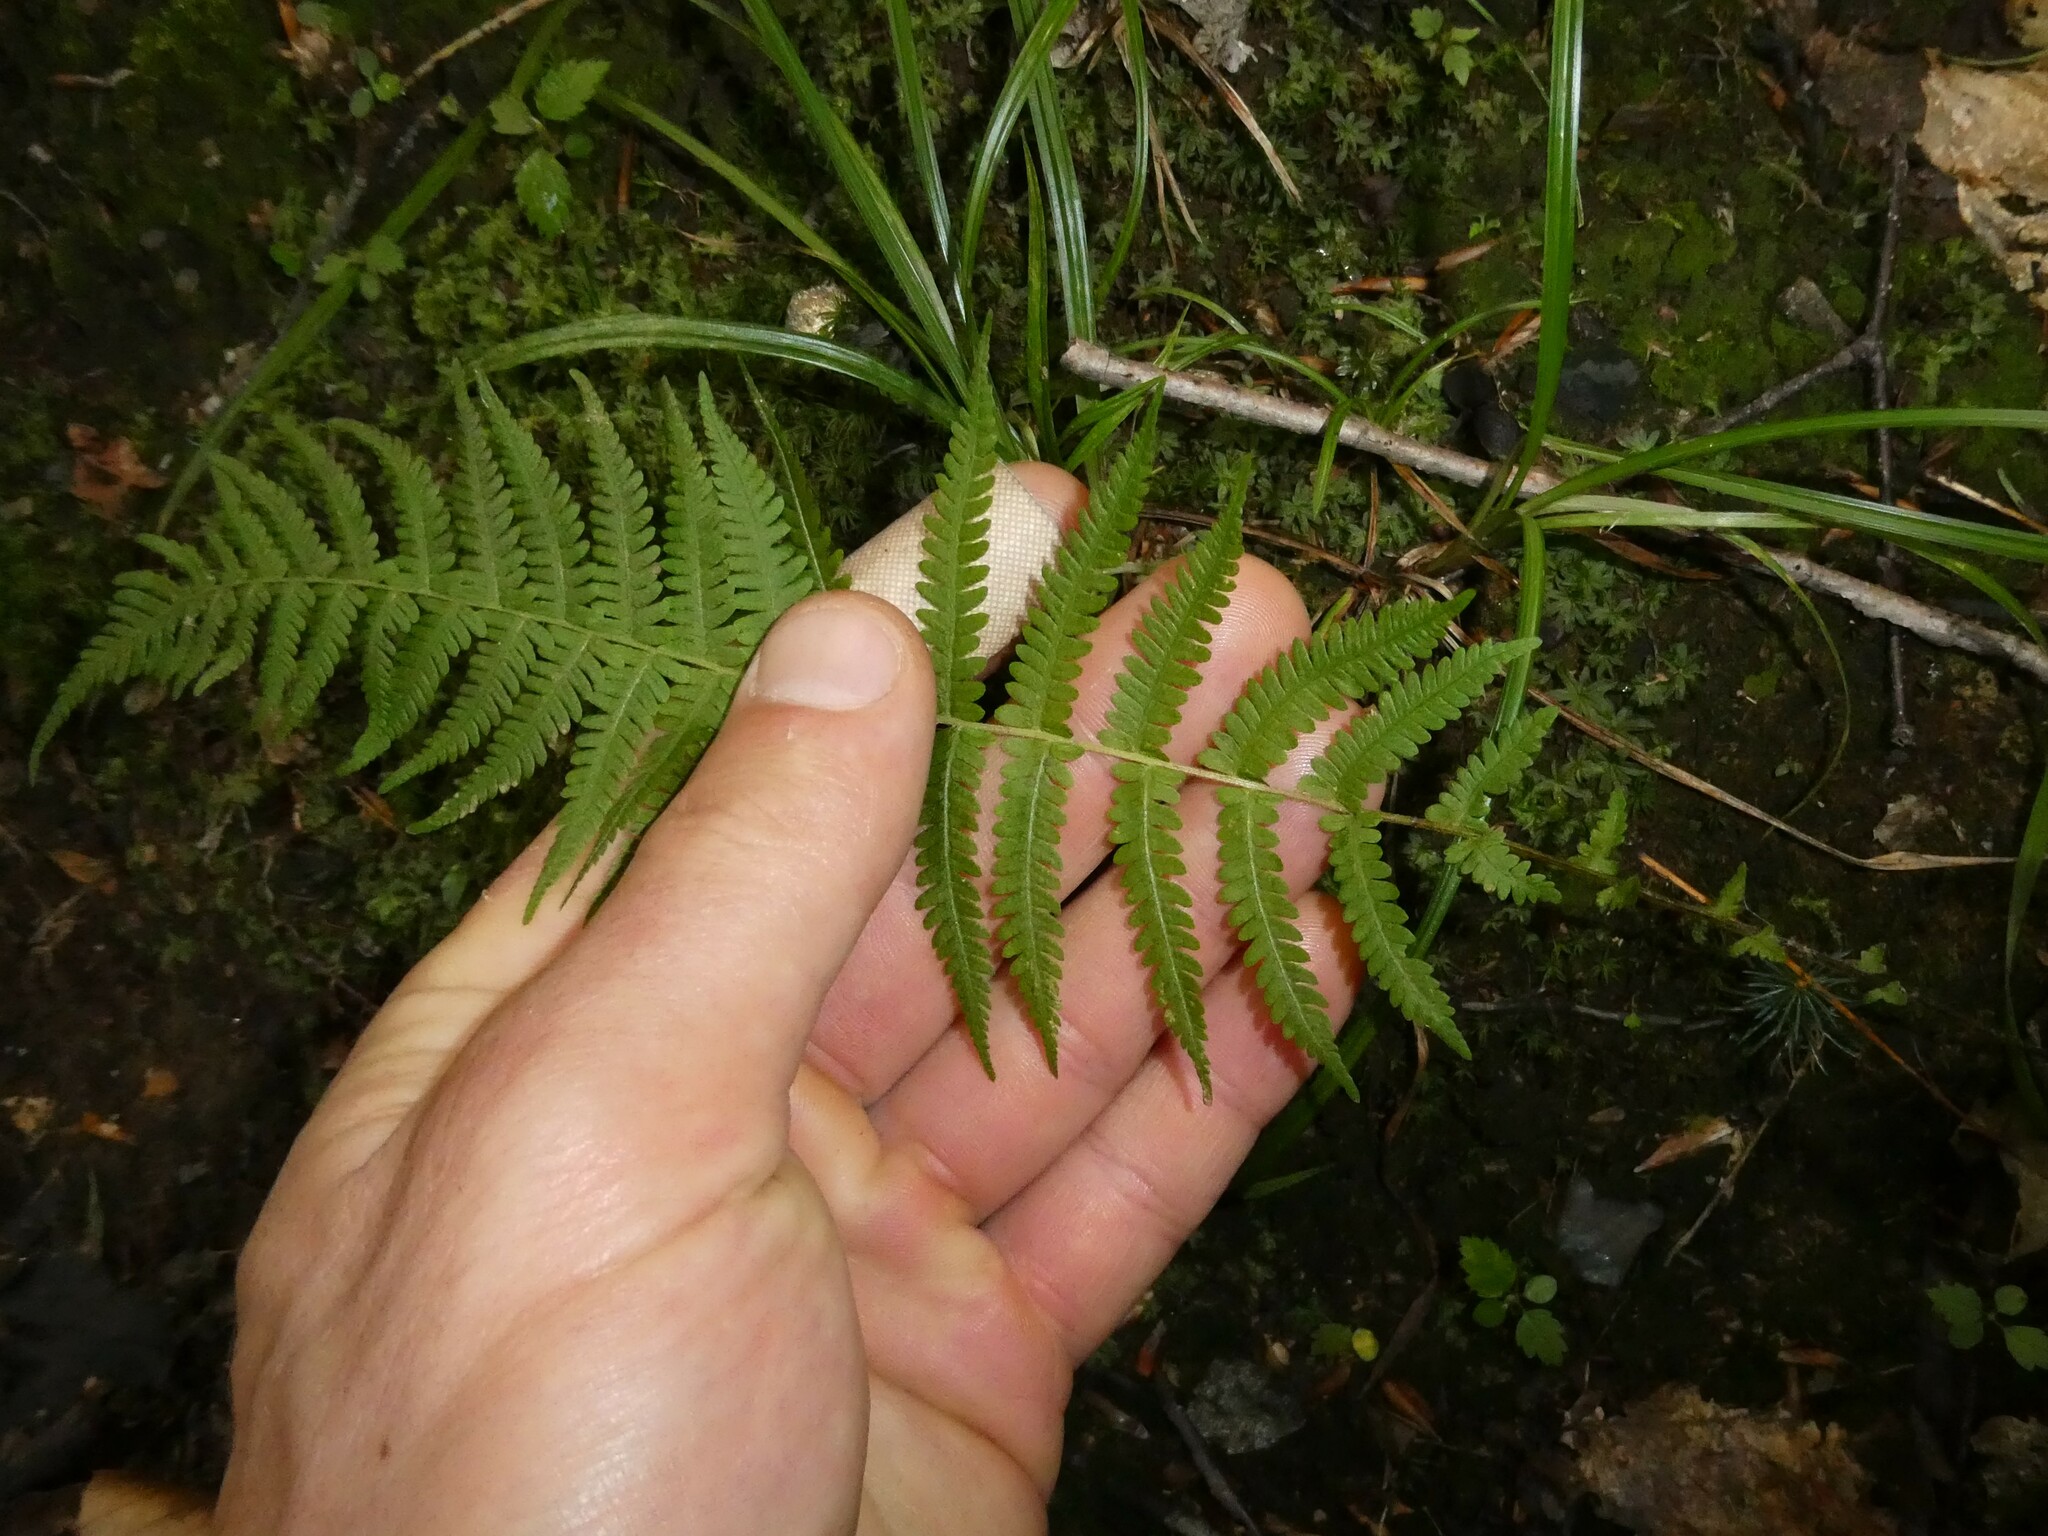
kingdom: Plantae
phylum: Tracheophyta
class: Polypodiopsida
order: Polypodiales
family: Thelypteridaceae
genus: Amauropelta
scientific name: Amauropelta noveboracensis
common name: New york fern
